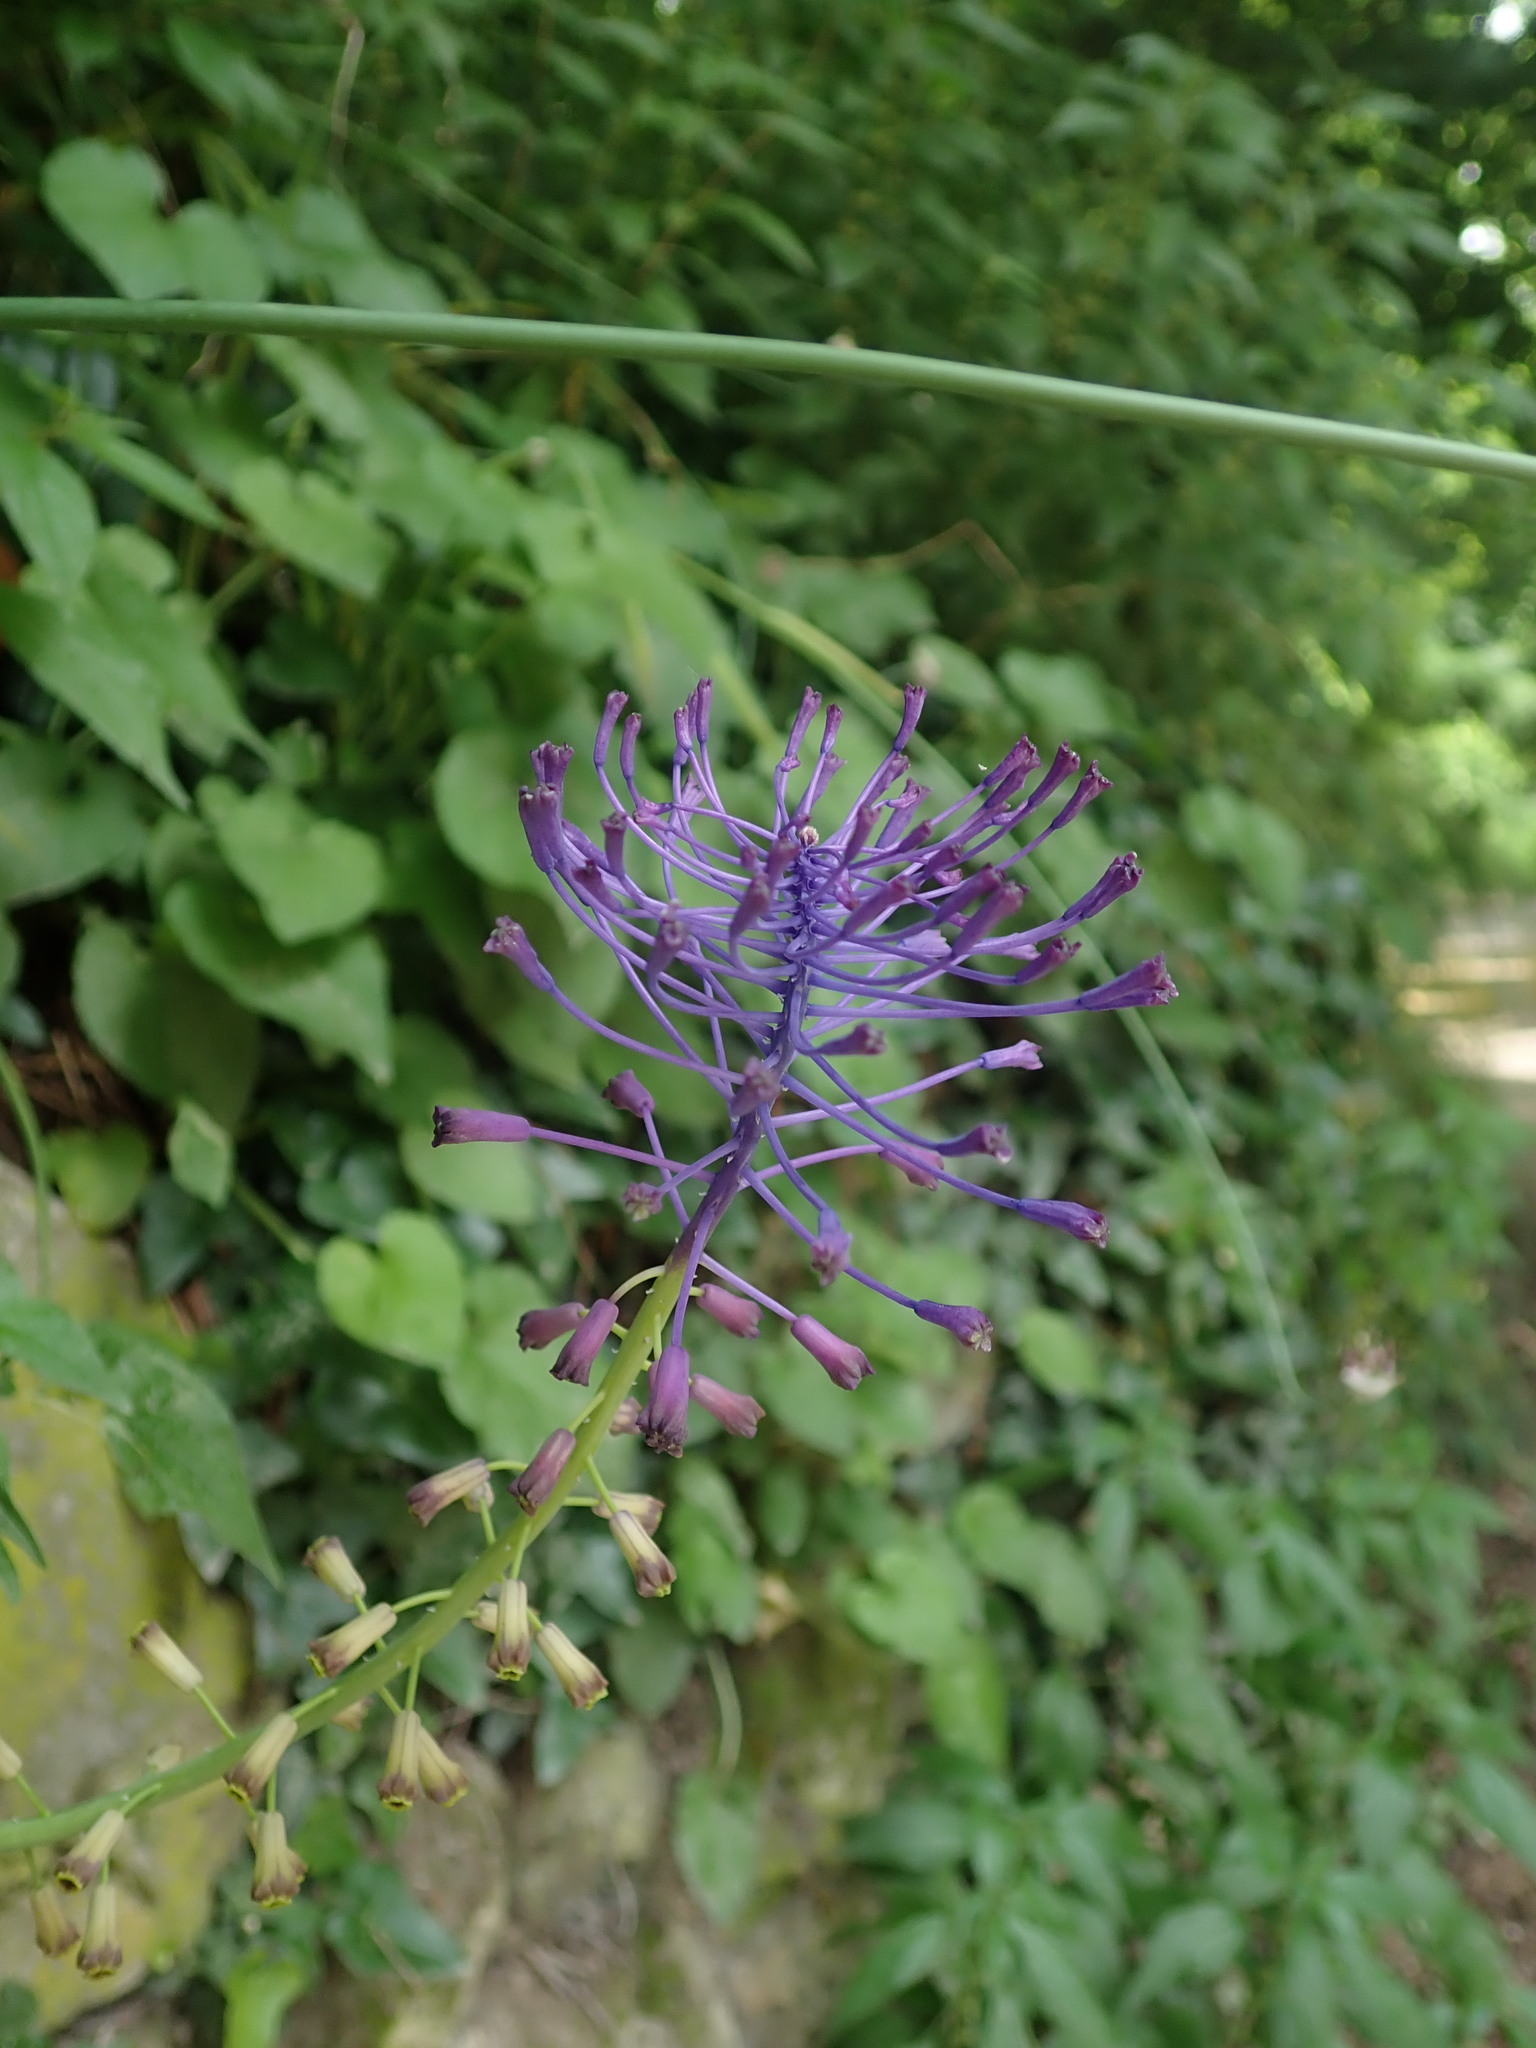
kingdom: Plantae
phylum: Tracheophyta
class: Liliopsida
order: Asparagales
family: Asparagaceae
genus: Muscari
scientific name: Muscari comosum
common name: Tassel hyacinth
